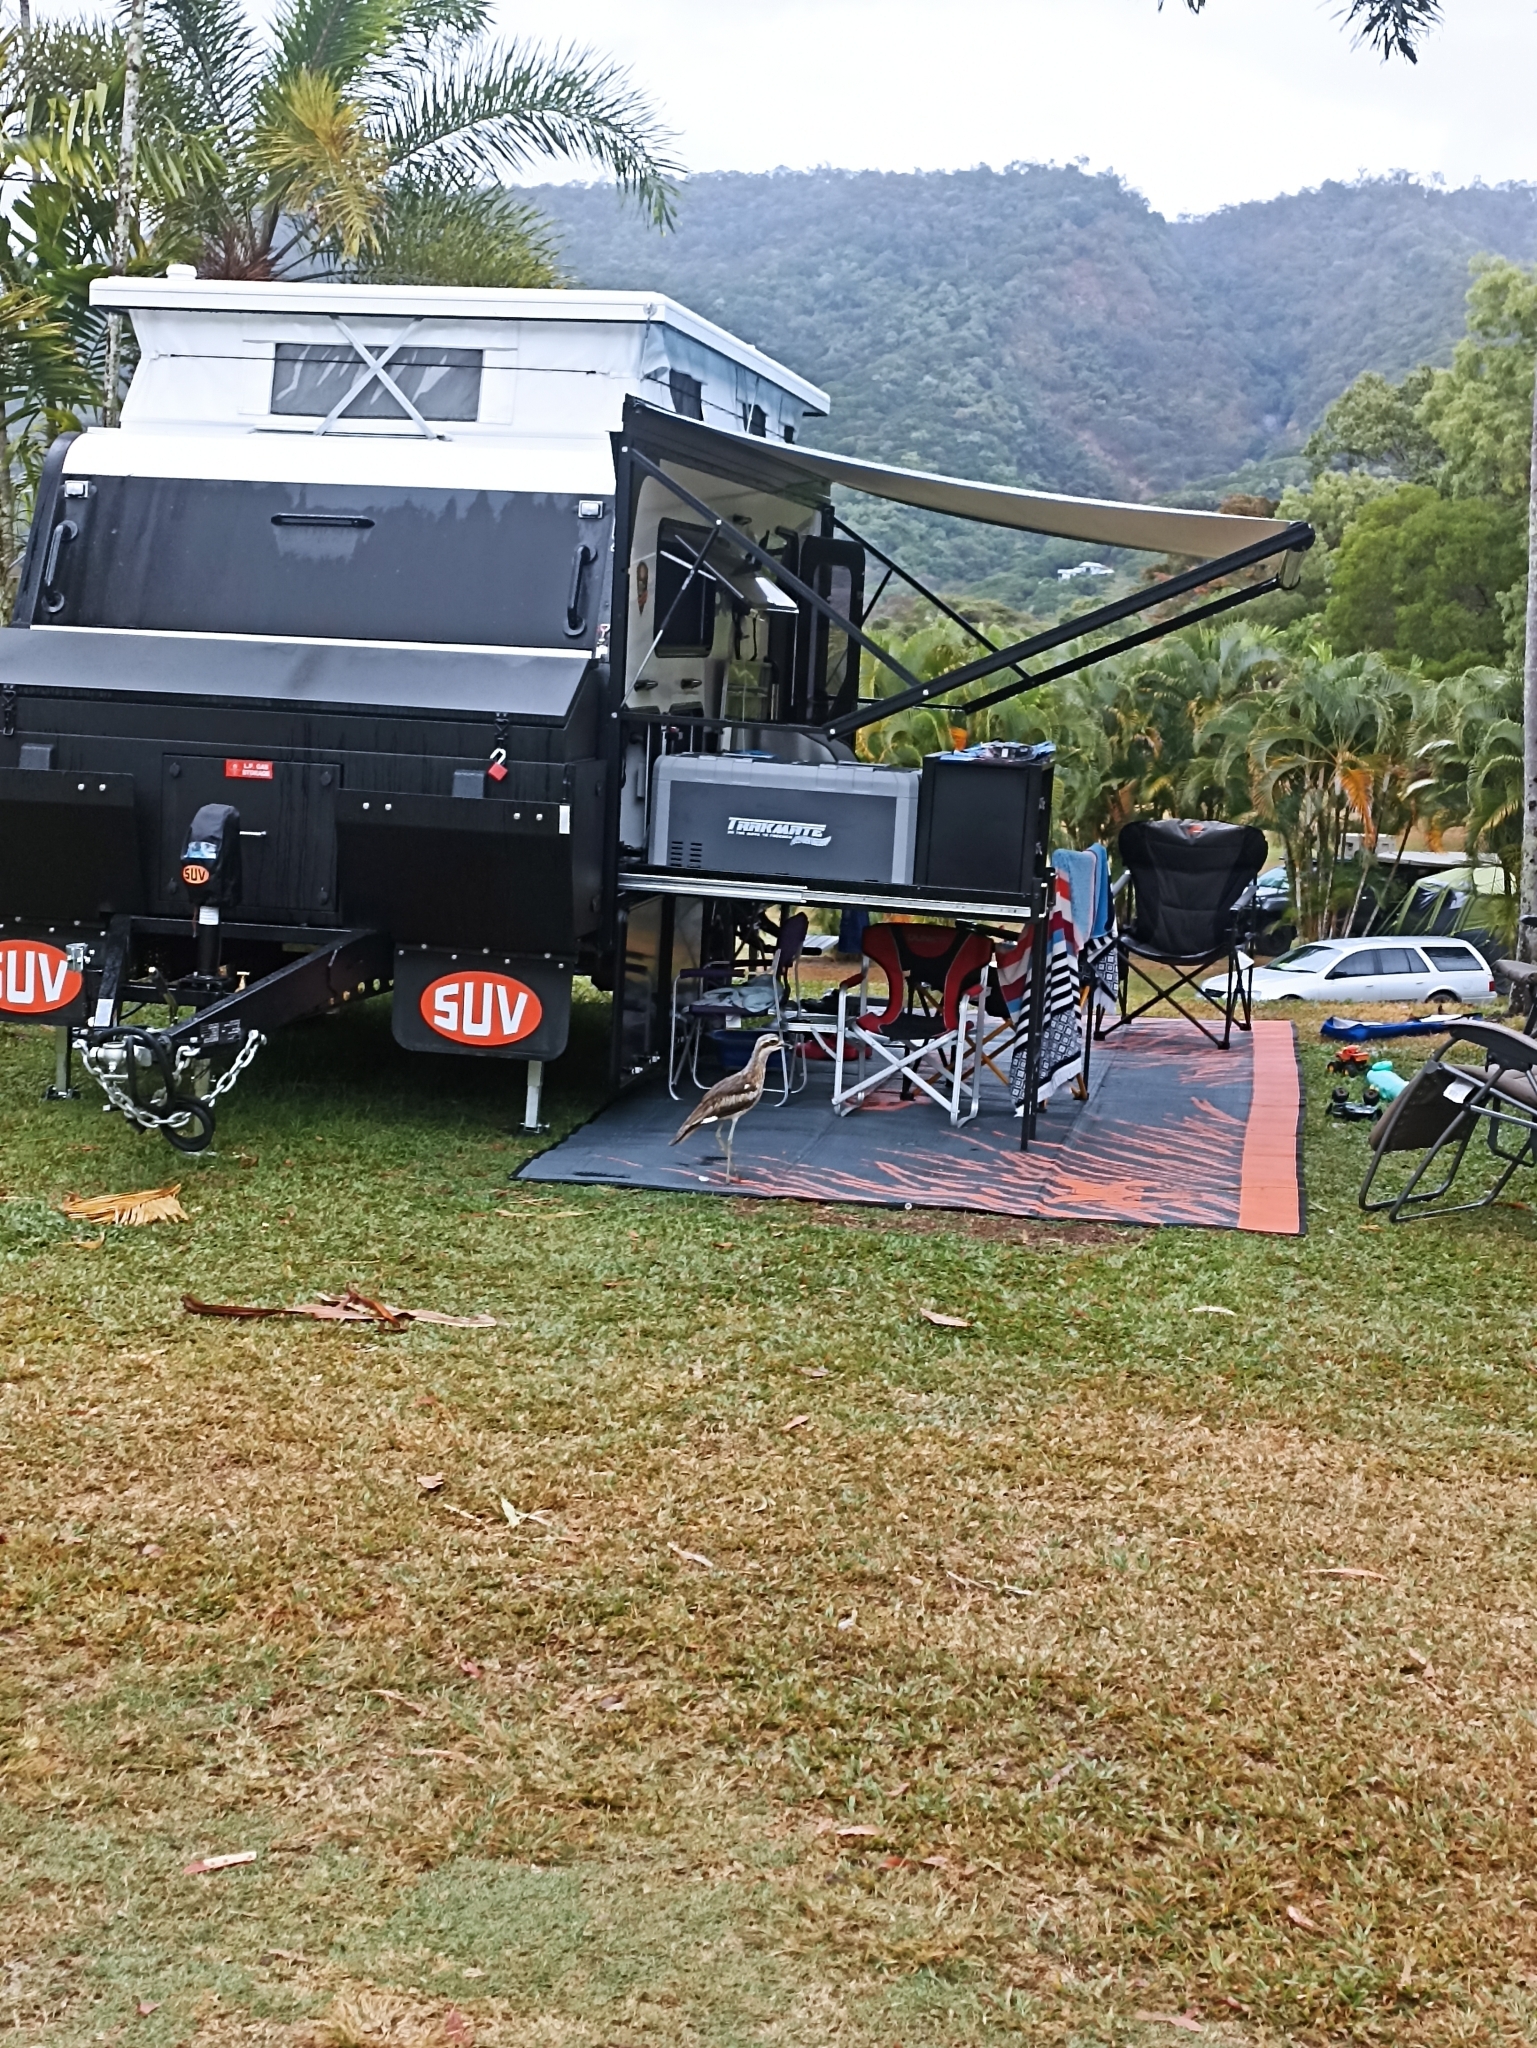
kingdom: Animalia
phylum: Chordata
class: Aves
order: Charadriiformes
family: Burhinidae
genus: Burhinus
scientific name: Burhinus grallarius
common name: Bush stone-curlew
